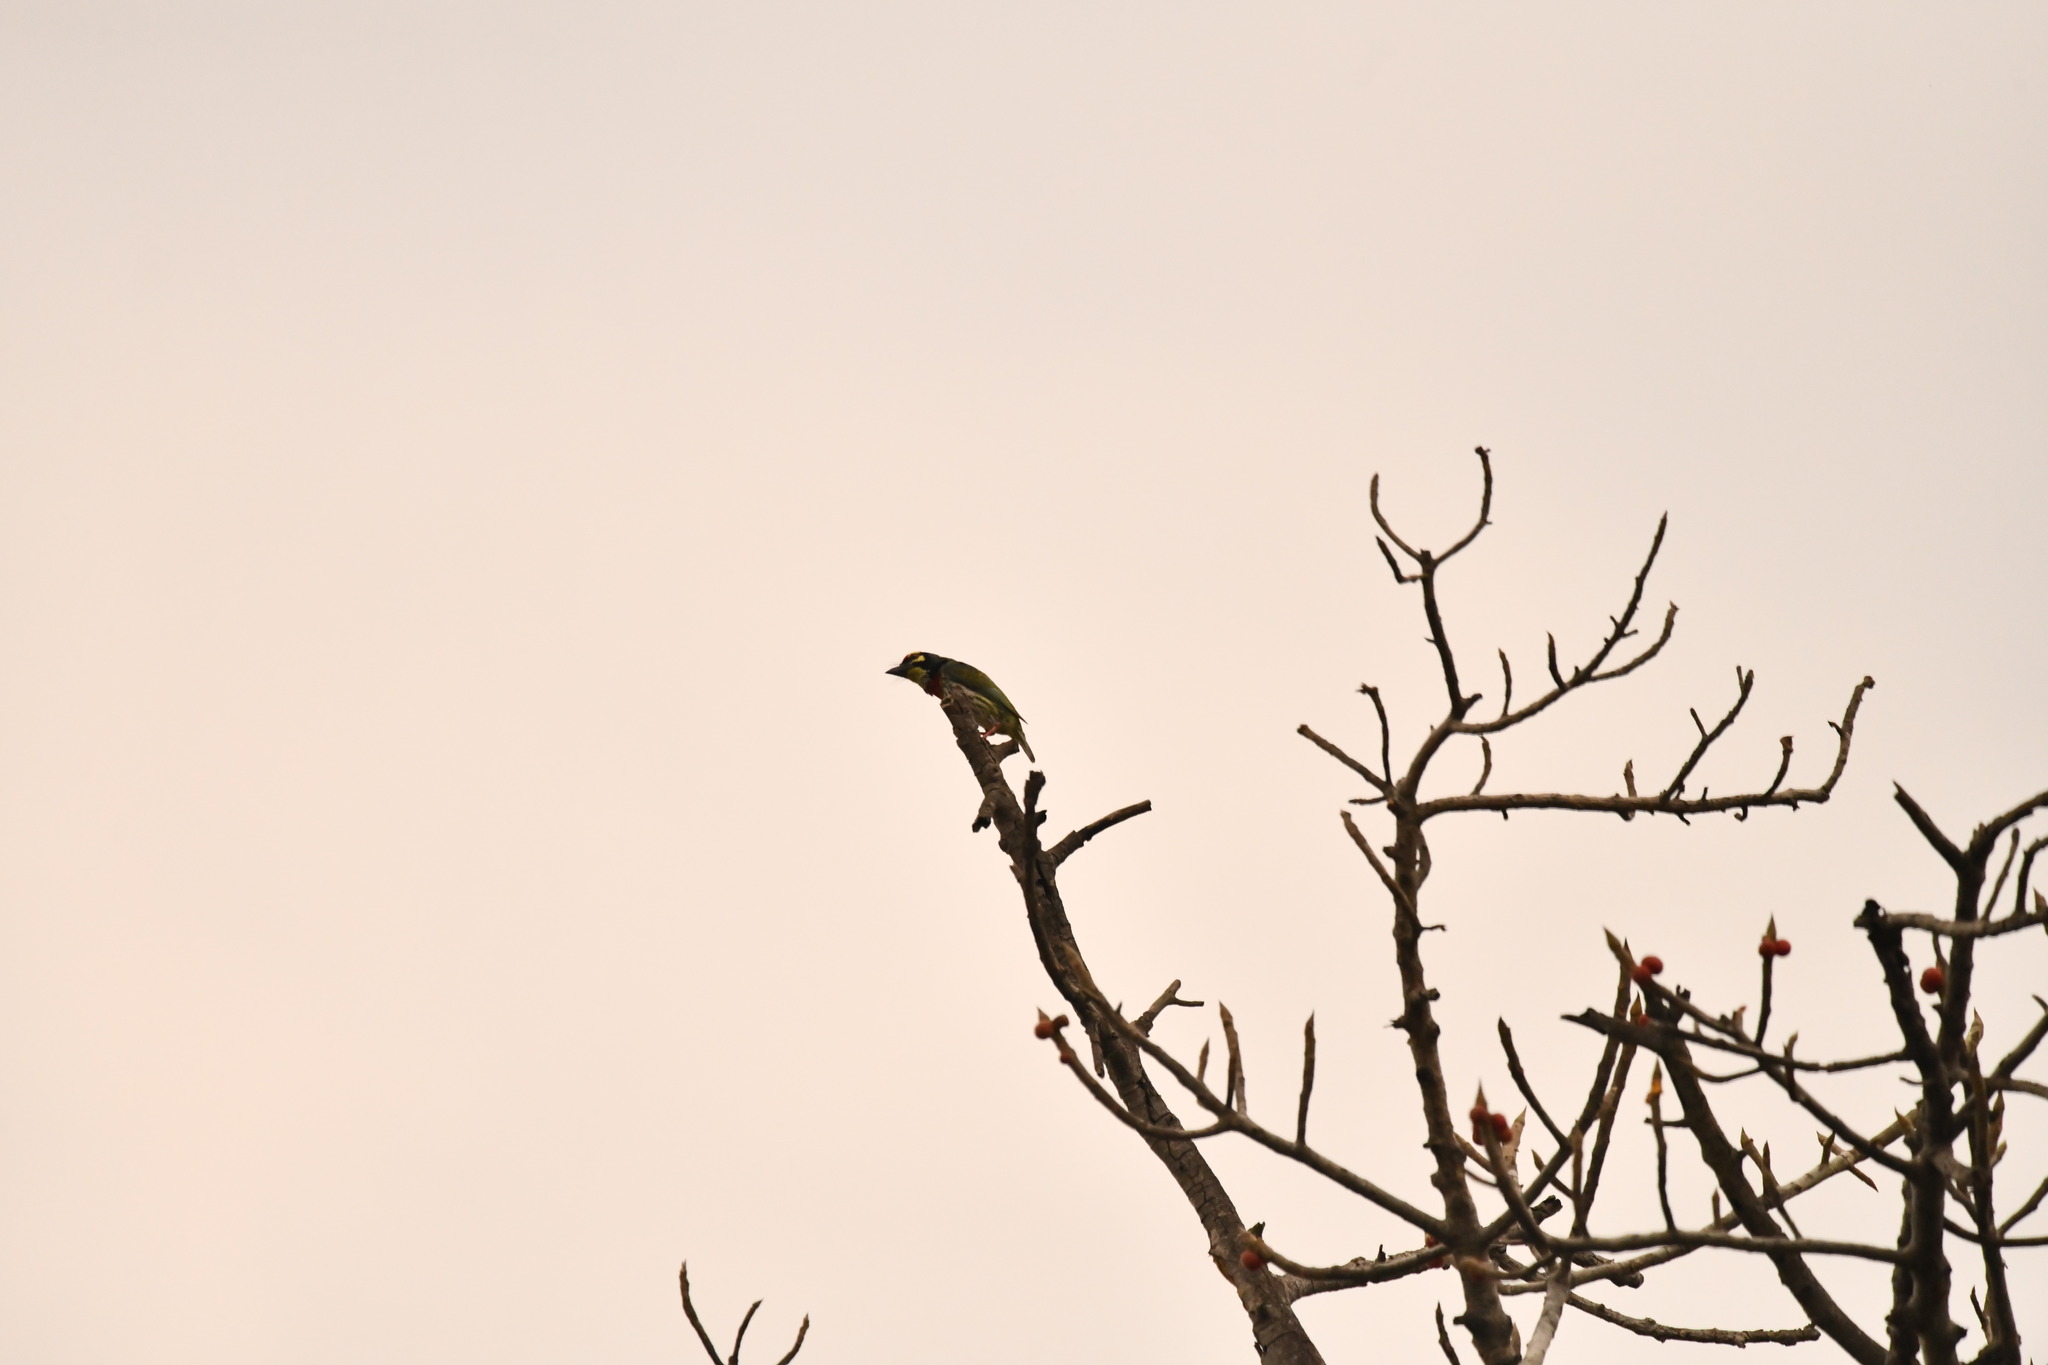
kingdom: Animalia
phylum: Chordata
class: Aves
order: Piciformes
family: Megalaimidae
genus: Psilopogon
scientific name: Psilopogon haemacephalus
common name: Coppersmith barbet
